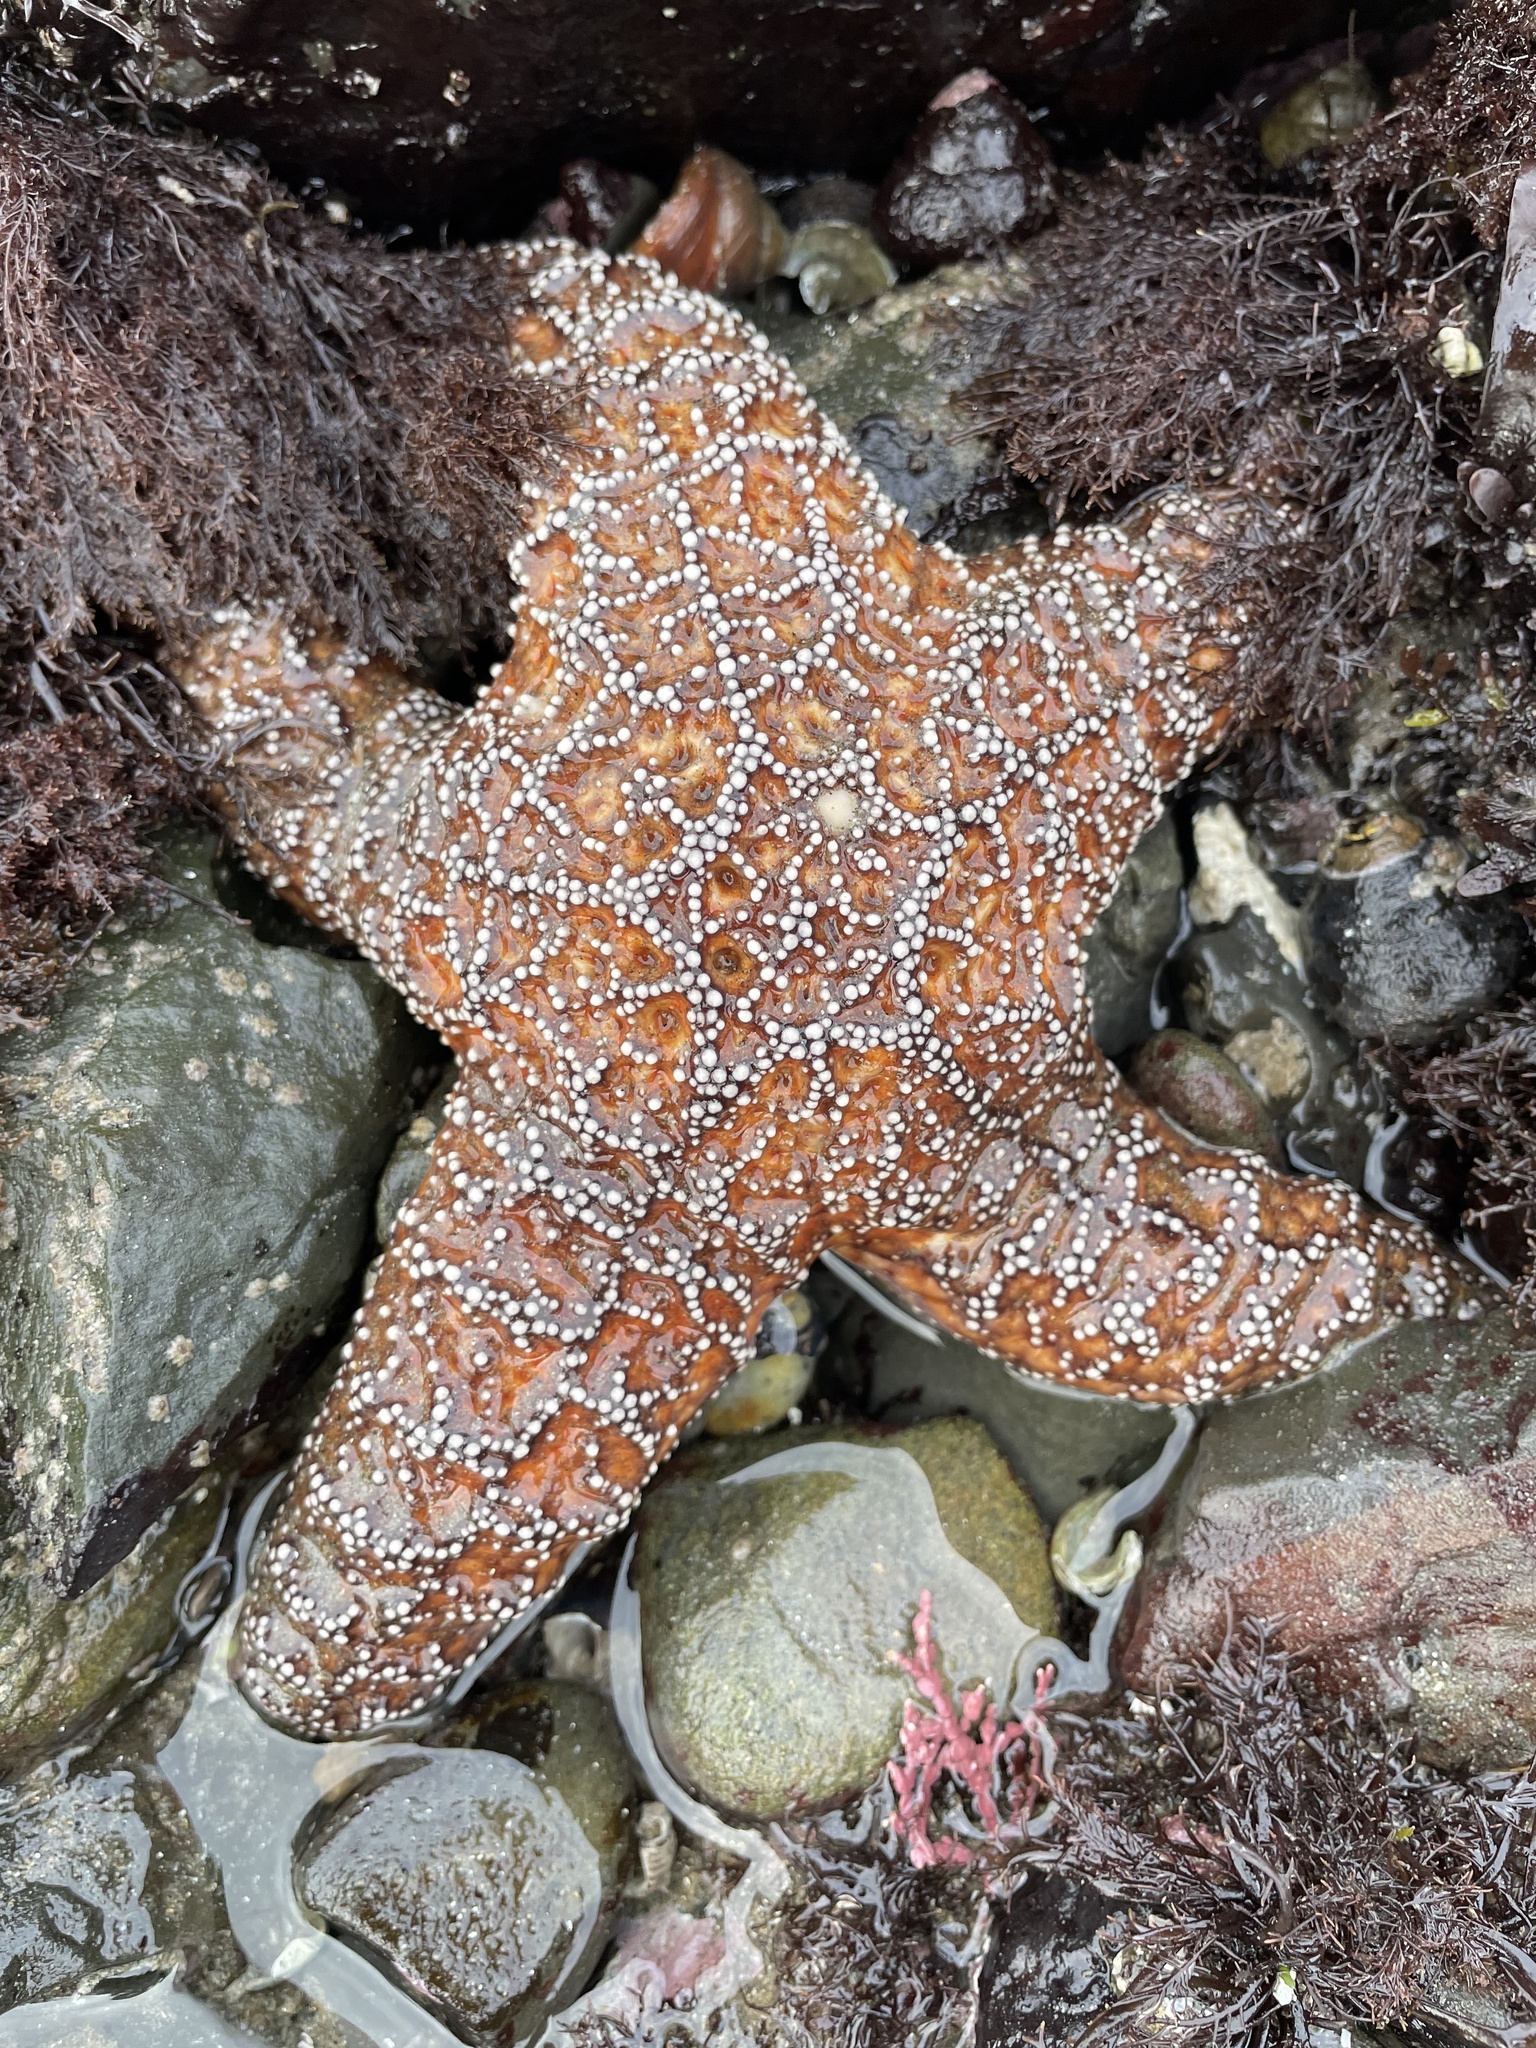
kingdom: Animalia
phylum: Echinodermata
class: Asteroidea
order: Forcipulatida
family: Asteriidae
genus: Pisaster
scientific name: Pisaster ochraceus
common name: Ochre stars
